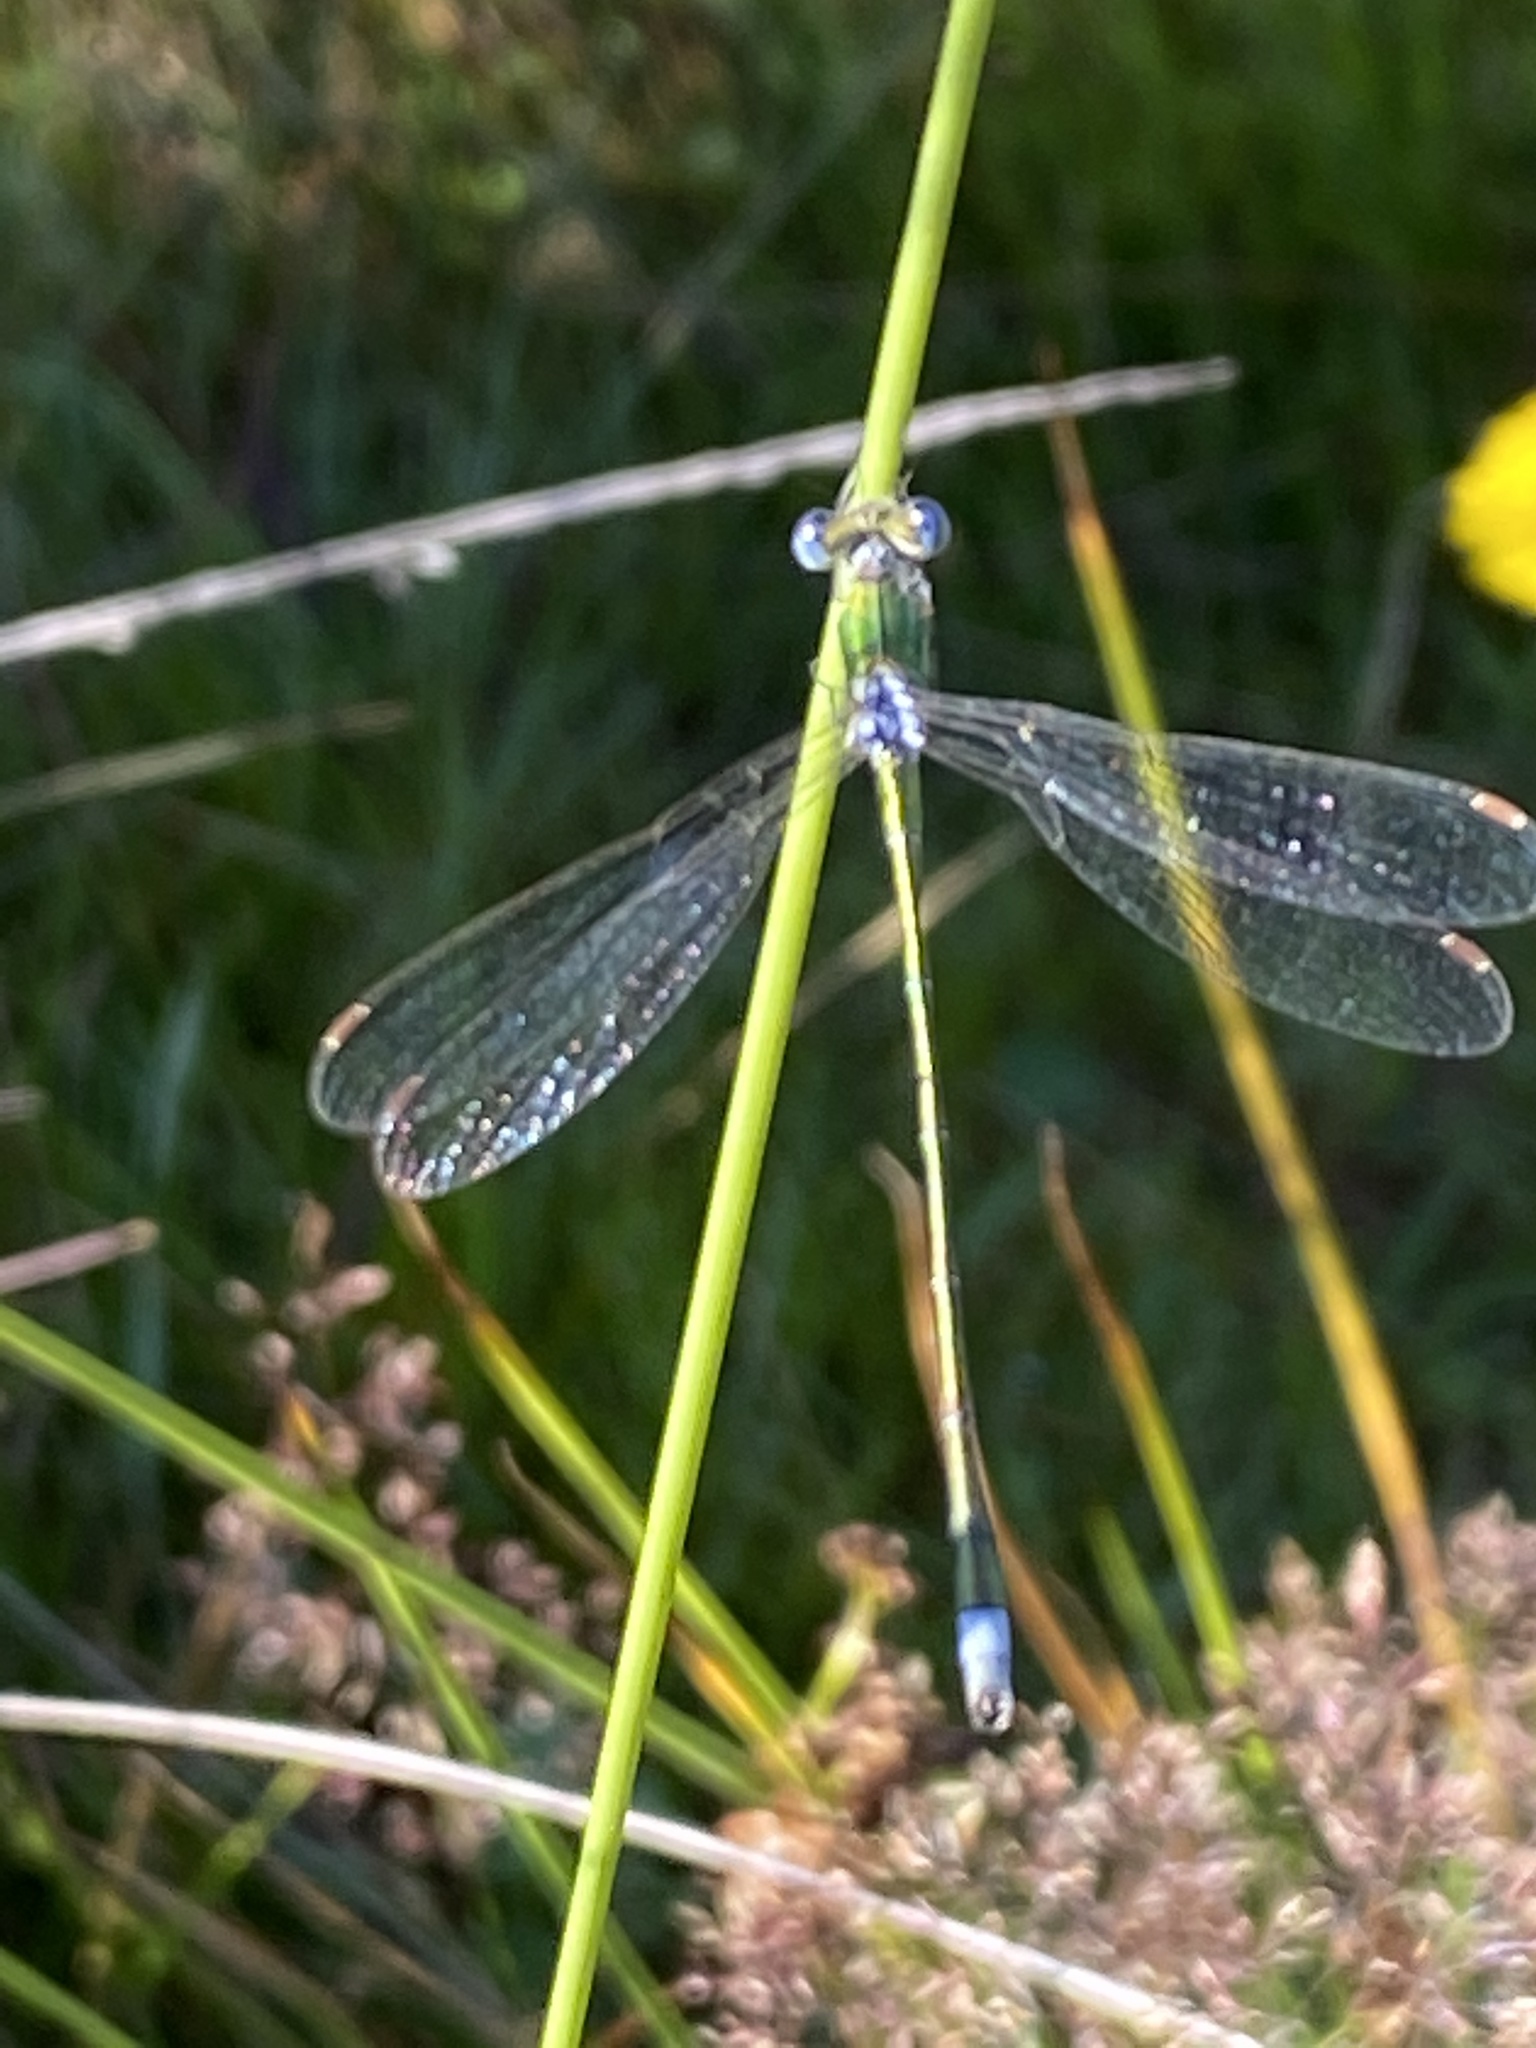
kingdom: Animalia
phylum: Arthropoda
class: Insecta
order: Odonata
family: Lestidae
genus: Lestes
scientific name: Lestes virens
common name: Small emerald spreadwing
